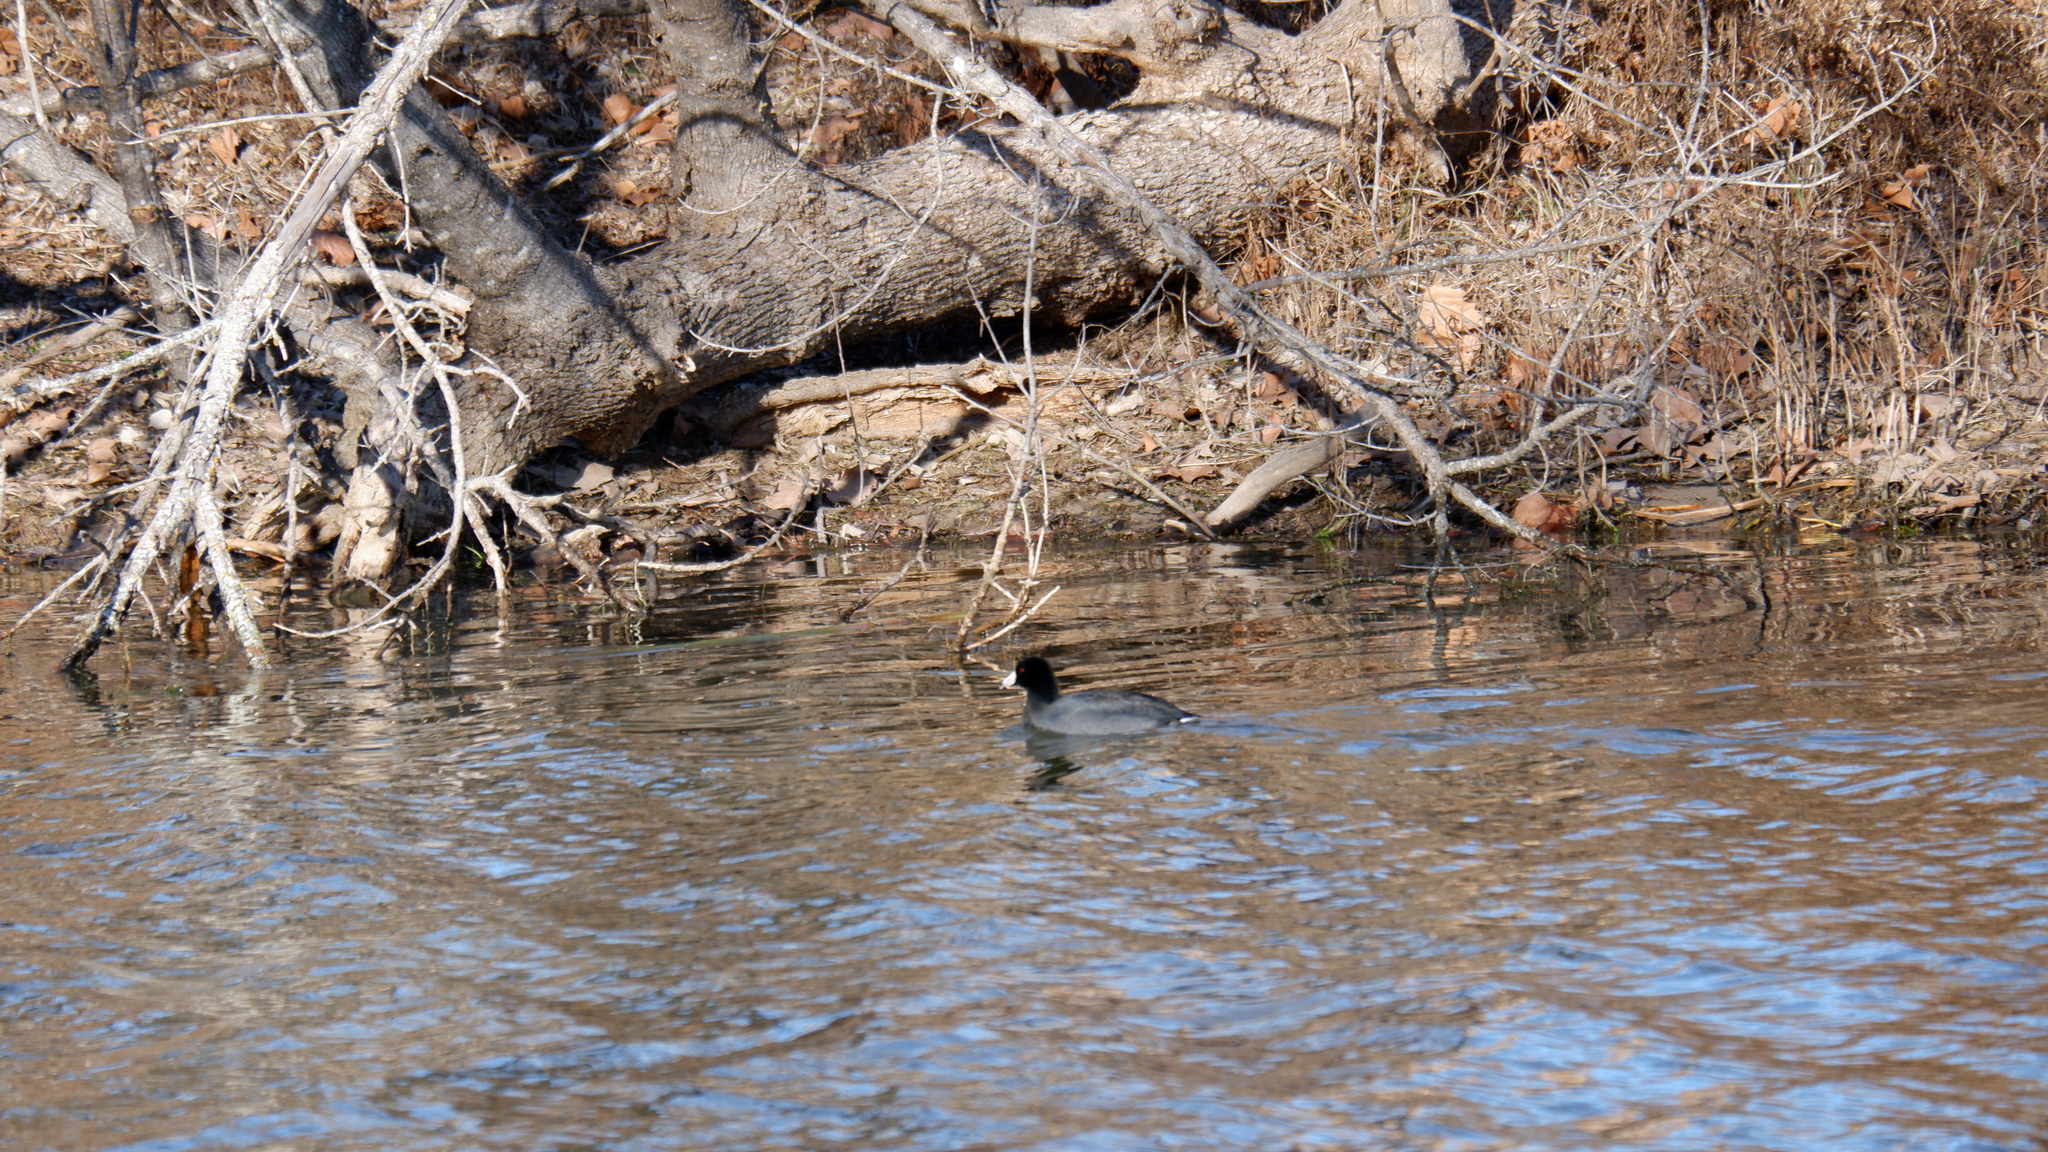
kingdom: Animalia
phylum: Chordata
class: Aves
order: Gruiformes
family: Rallidae
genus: Fulica
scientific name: Fulica americana
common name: American coot
